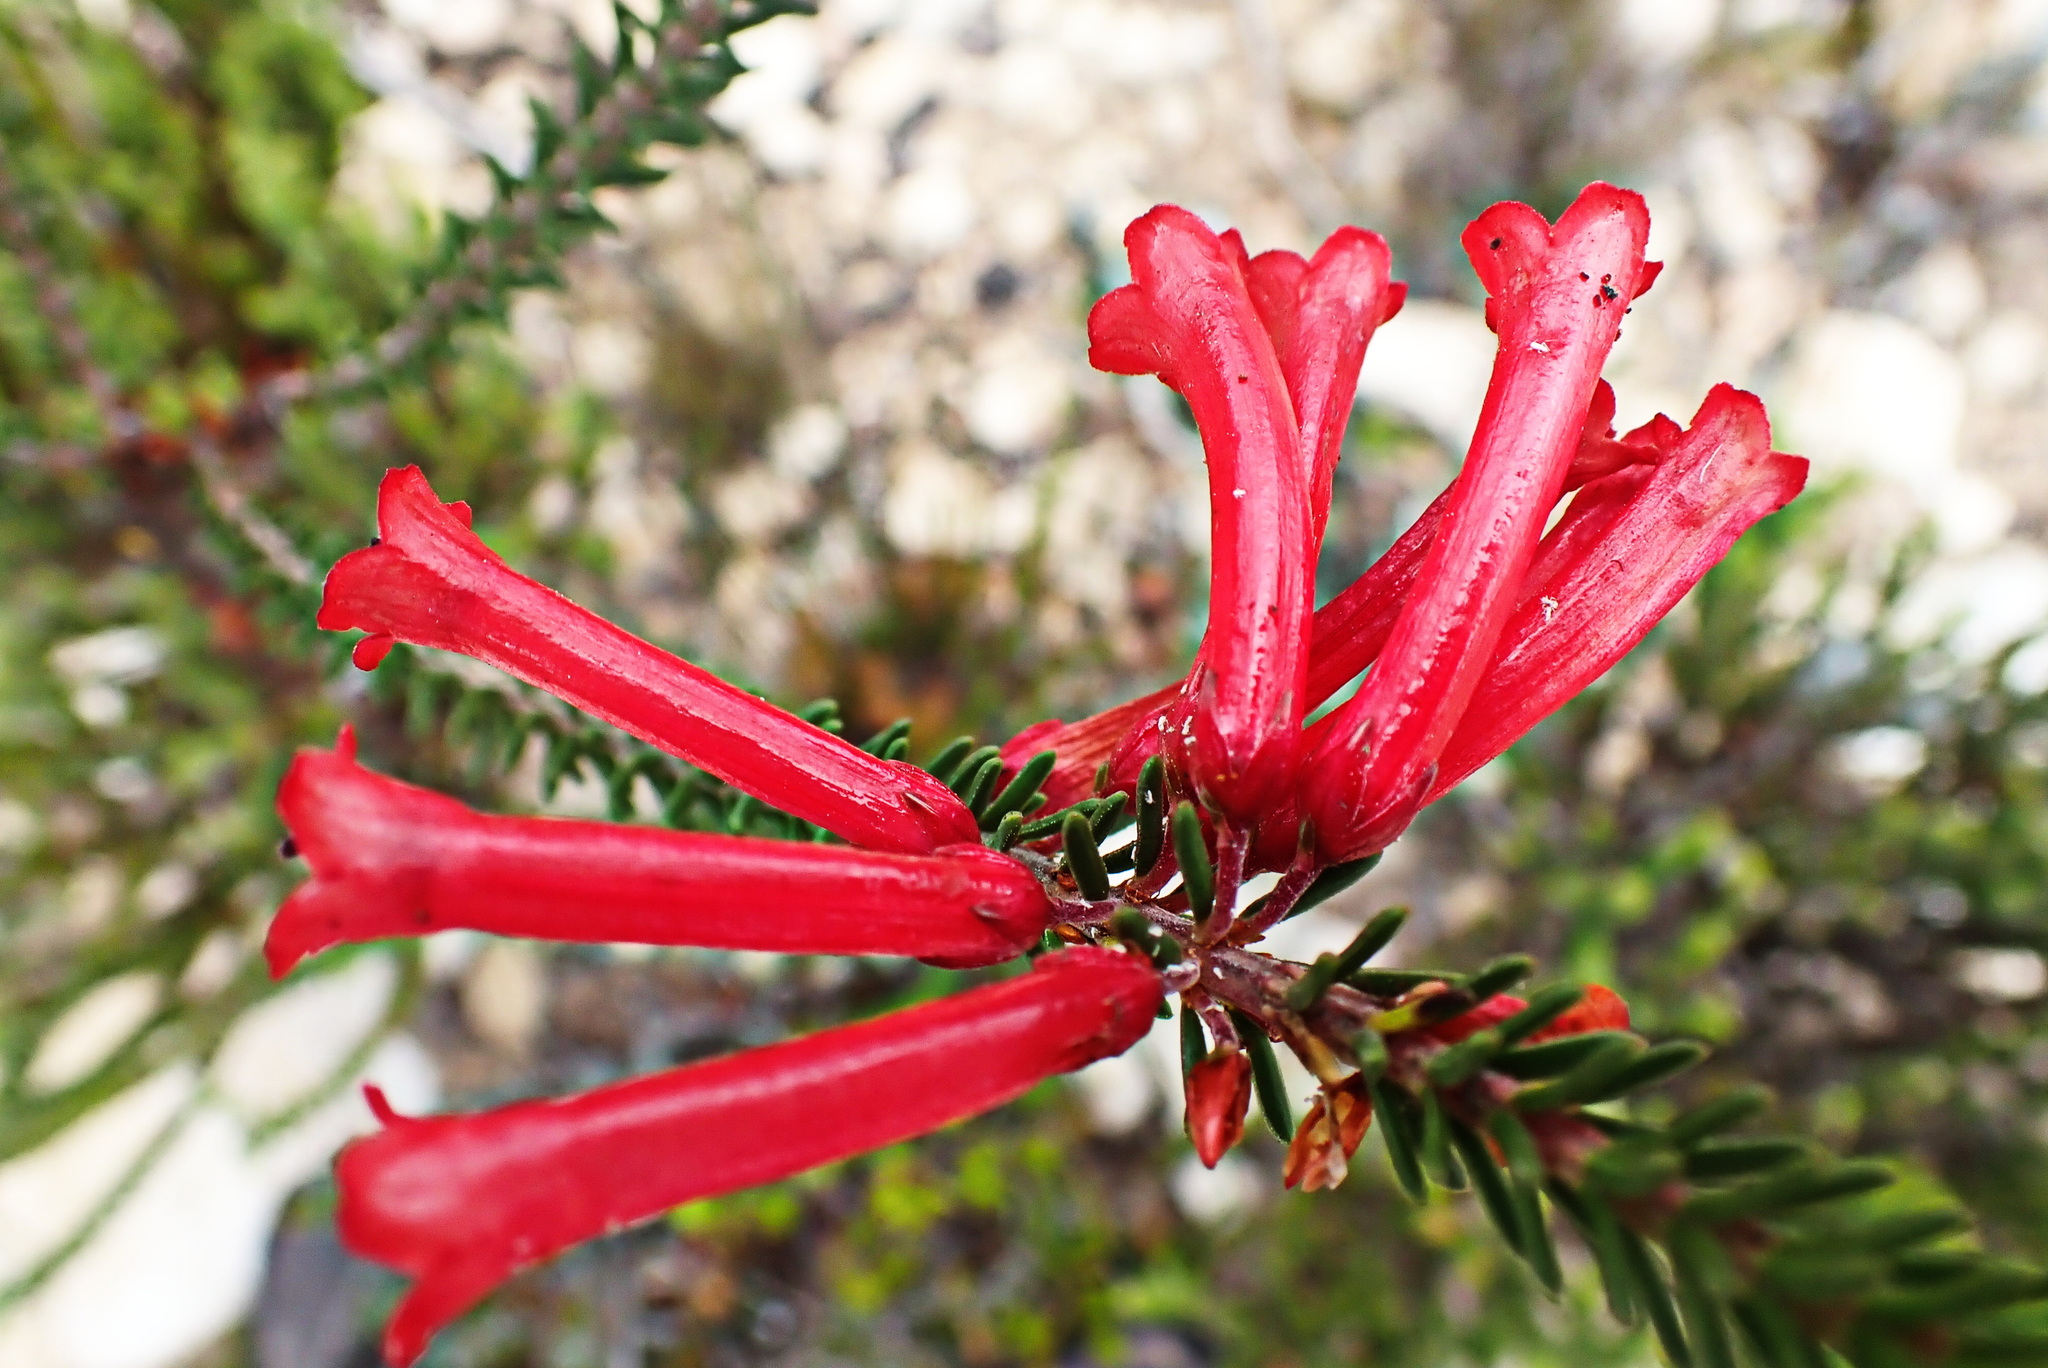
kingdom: Plantae
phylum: Tracheophyta
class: Magnoliopsida
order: Ericales
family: Ericaceae
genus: Erica
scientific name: Erica regia
